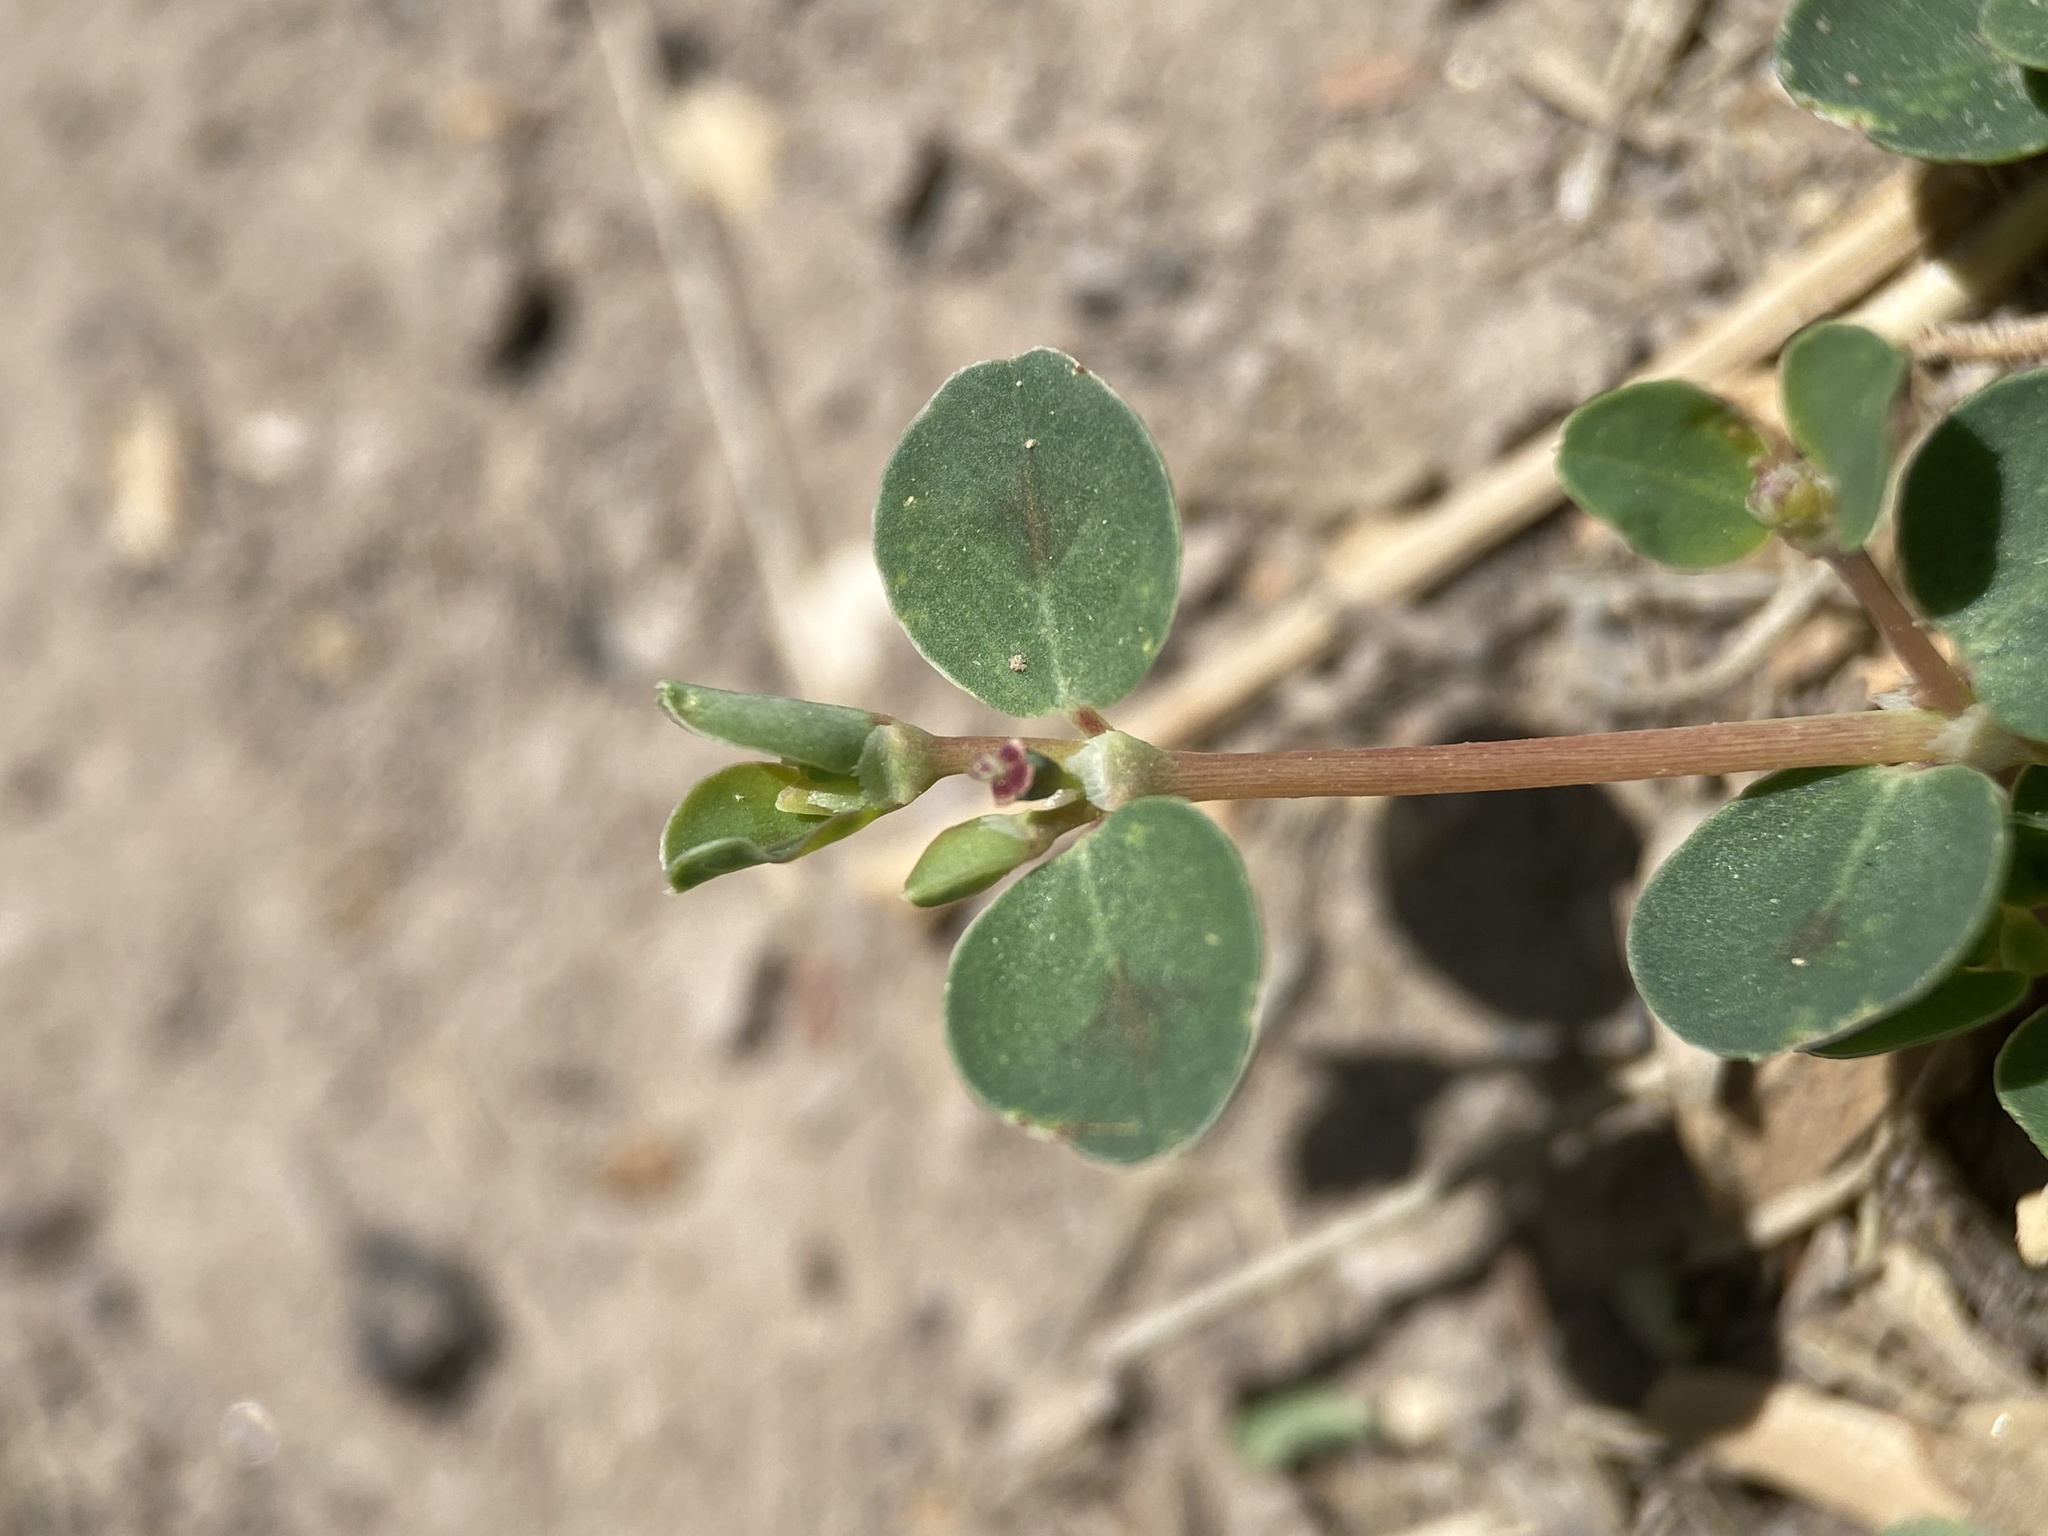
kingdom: Plantae
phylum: Tracheophyta
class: Magnoliopsida
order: Malpighiales
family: Euphorbiaceae
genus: Euphorbia
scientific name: Euphorbia albomarginata
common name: Whitemargin sandmat
